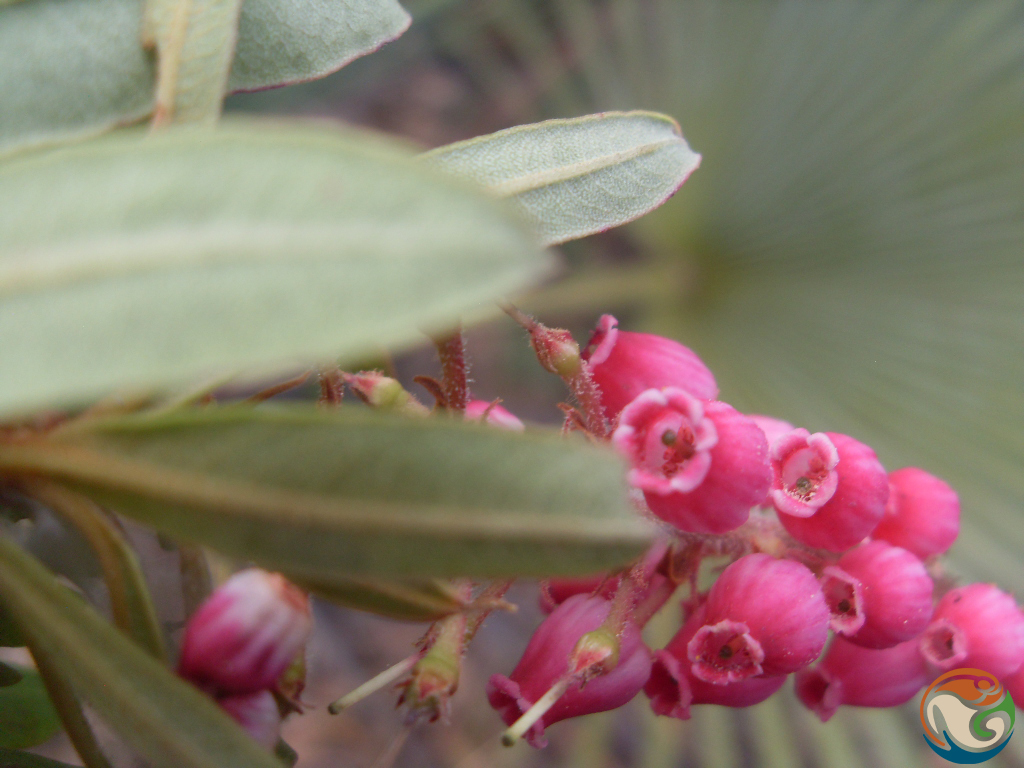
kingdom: Plantae
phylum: Tracheophyta
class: Magnoliopsida
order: Ericales
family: Ericaceae
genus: Comarostaphylis
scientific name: Comarostaphylis polifolia
